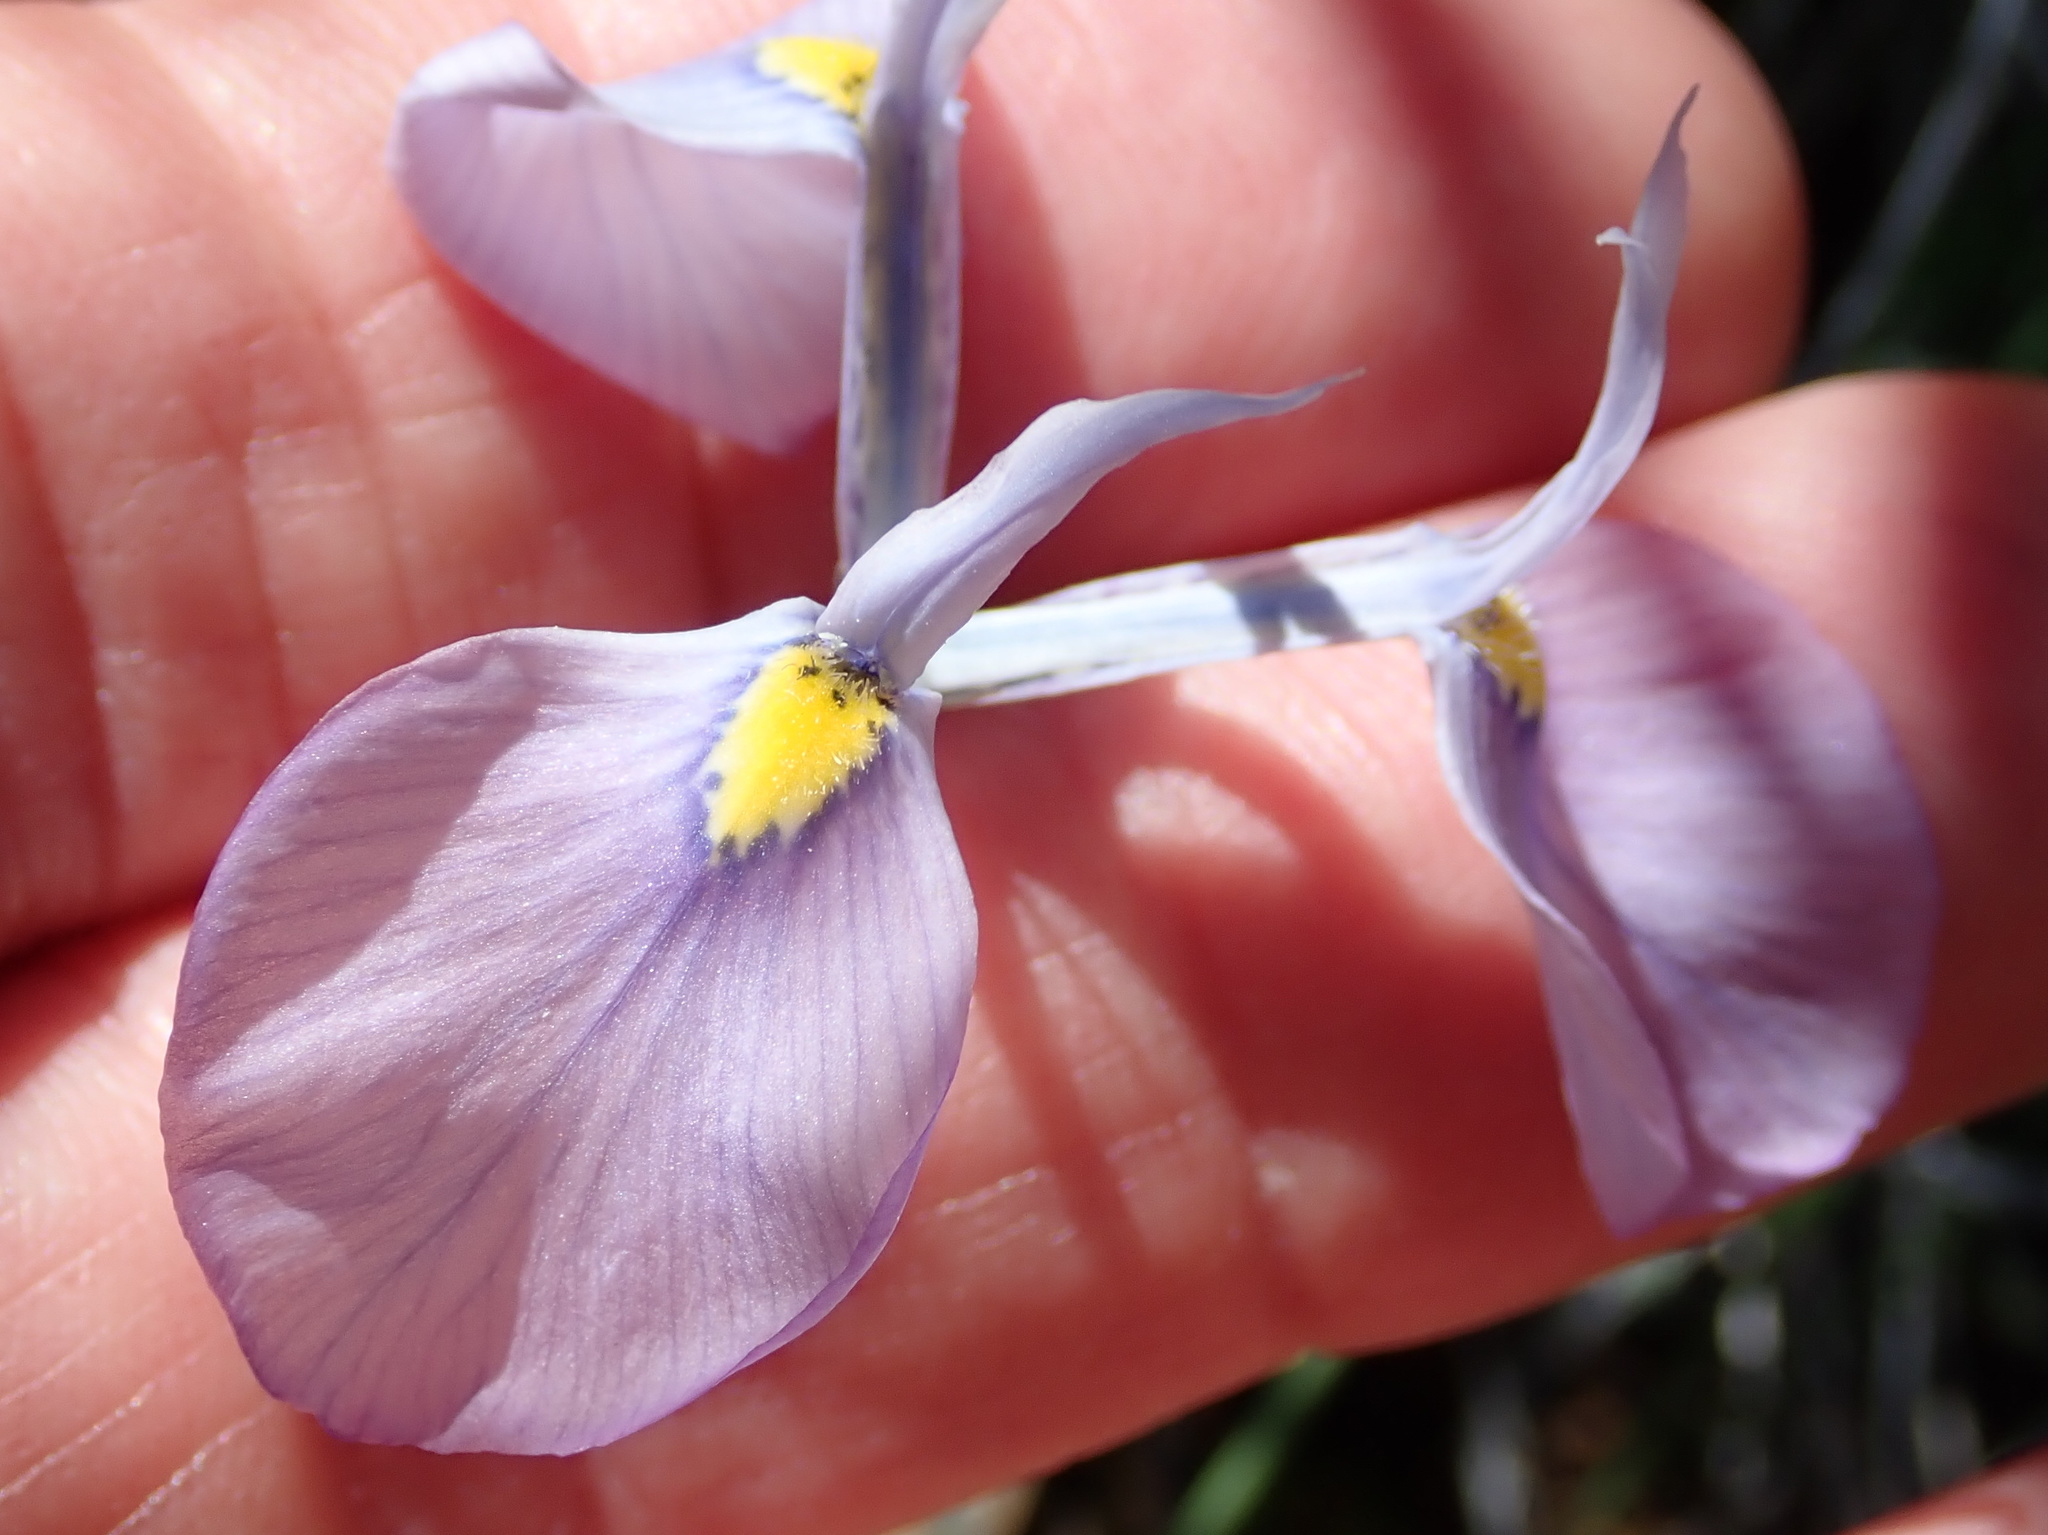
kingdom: Plantae
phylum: Tracheophyta
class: Liliopsida
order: Asparagales
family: Iridaceae
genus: Moraea
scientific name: Moraea tripetala
